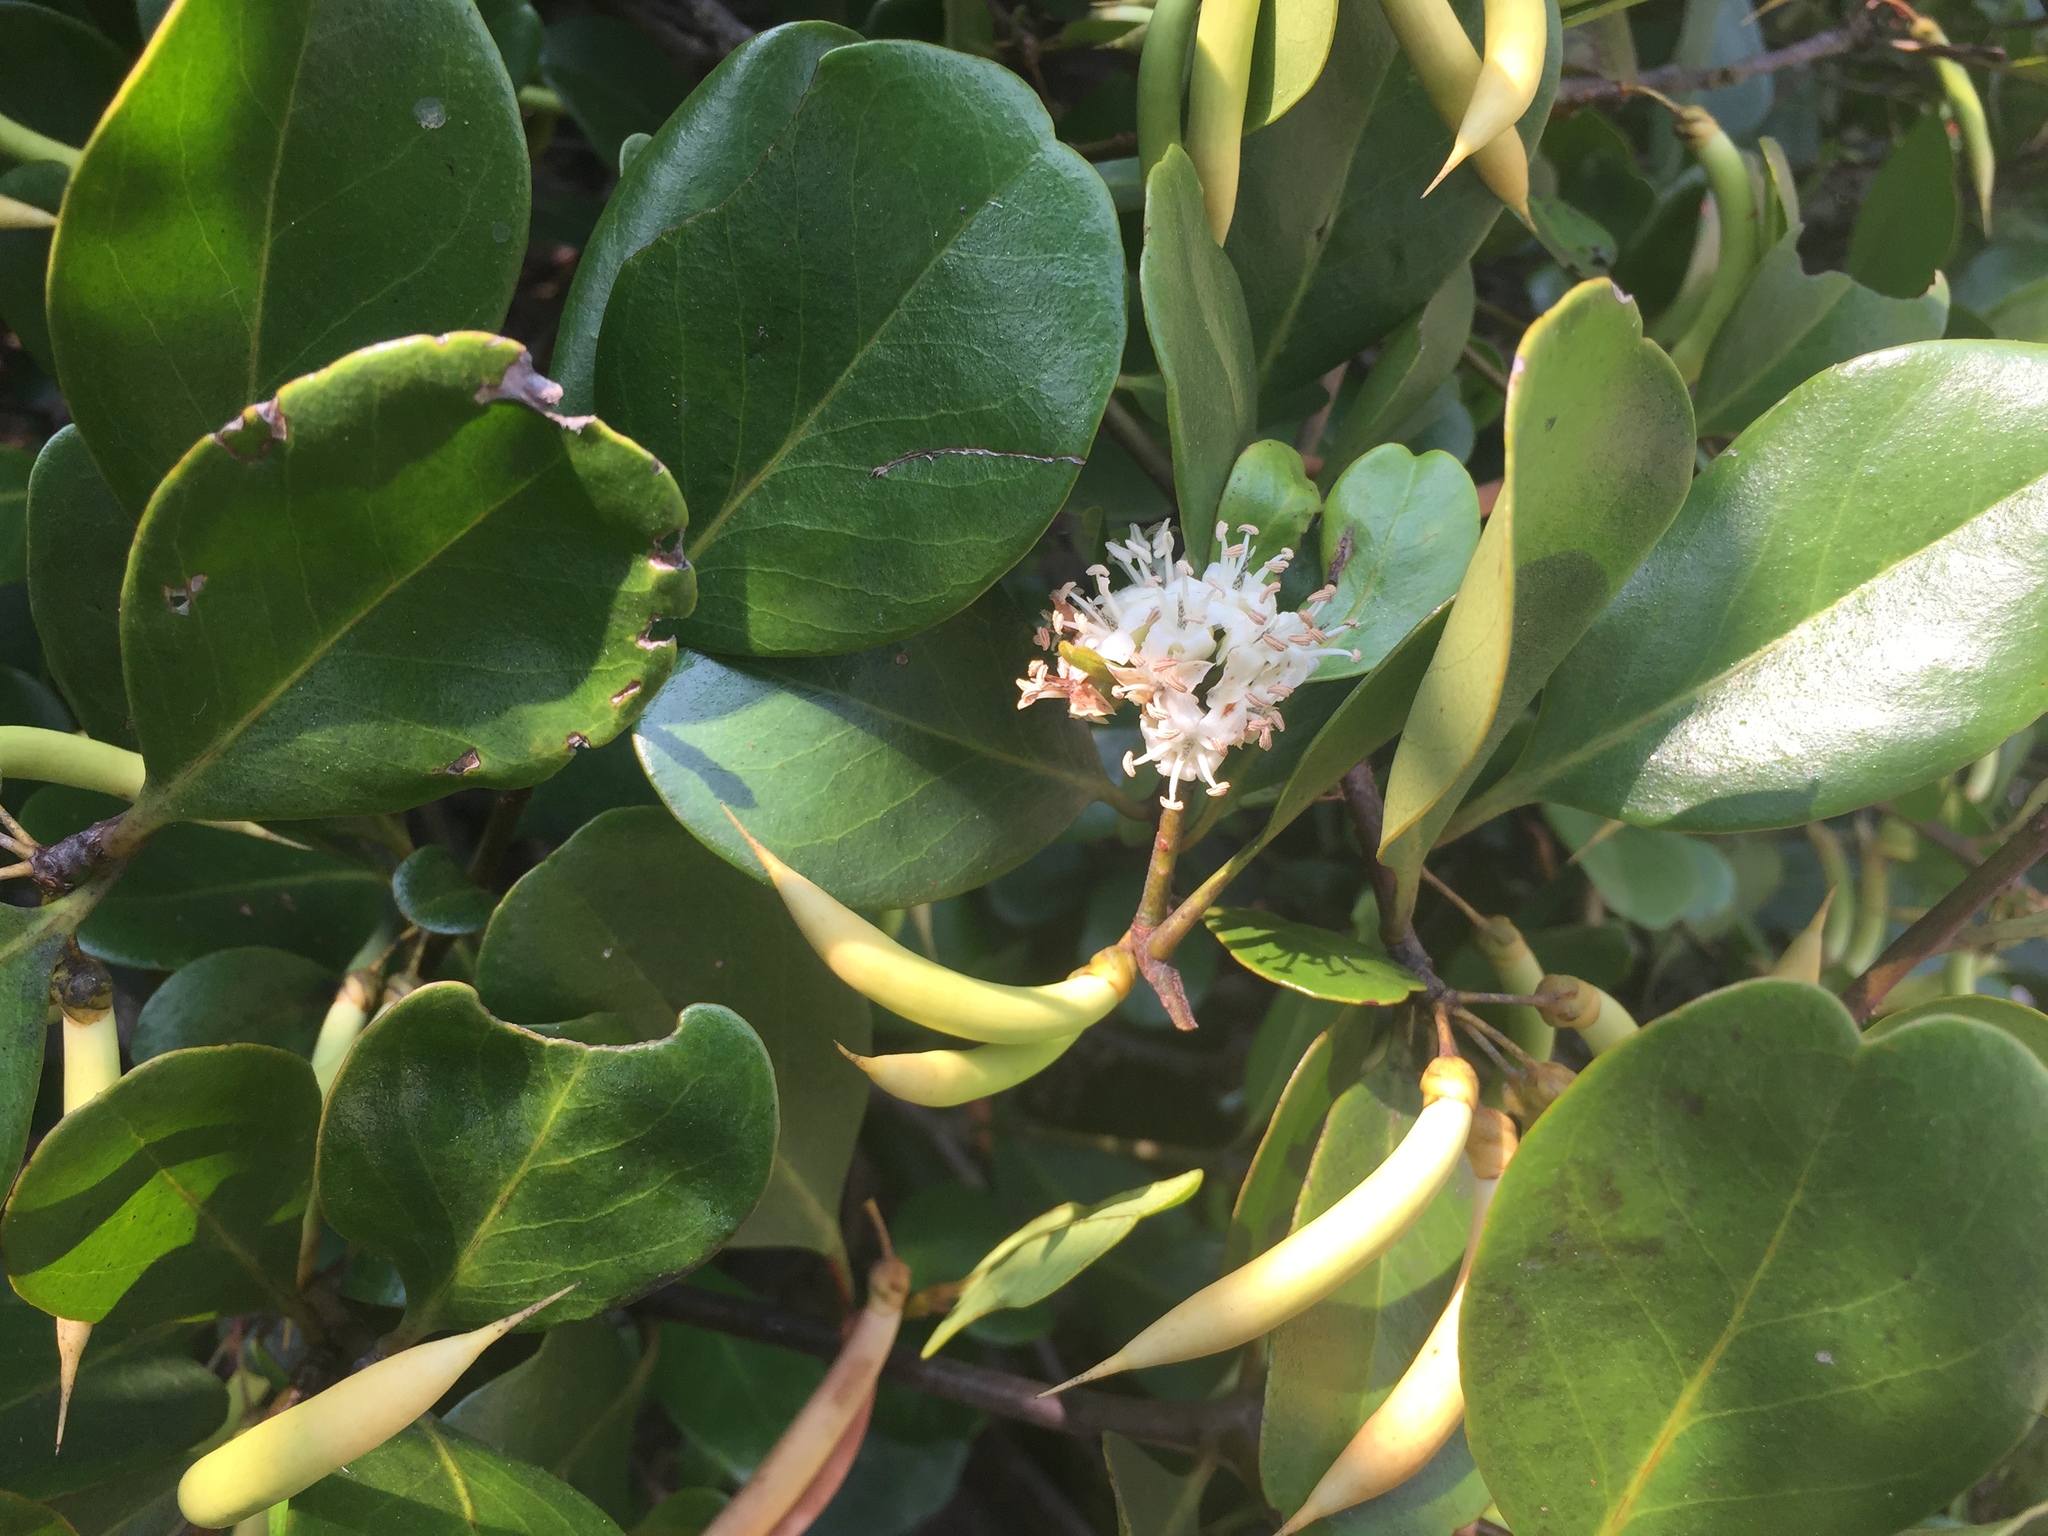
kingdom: Plantae
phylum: Tracheophyta
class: Magnoliopsida
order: Ericales
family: Primulaceae
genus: Aegiceras
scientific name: Aegiceras corniculatum
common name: River mangrove
